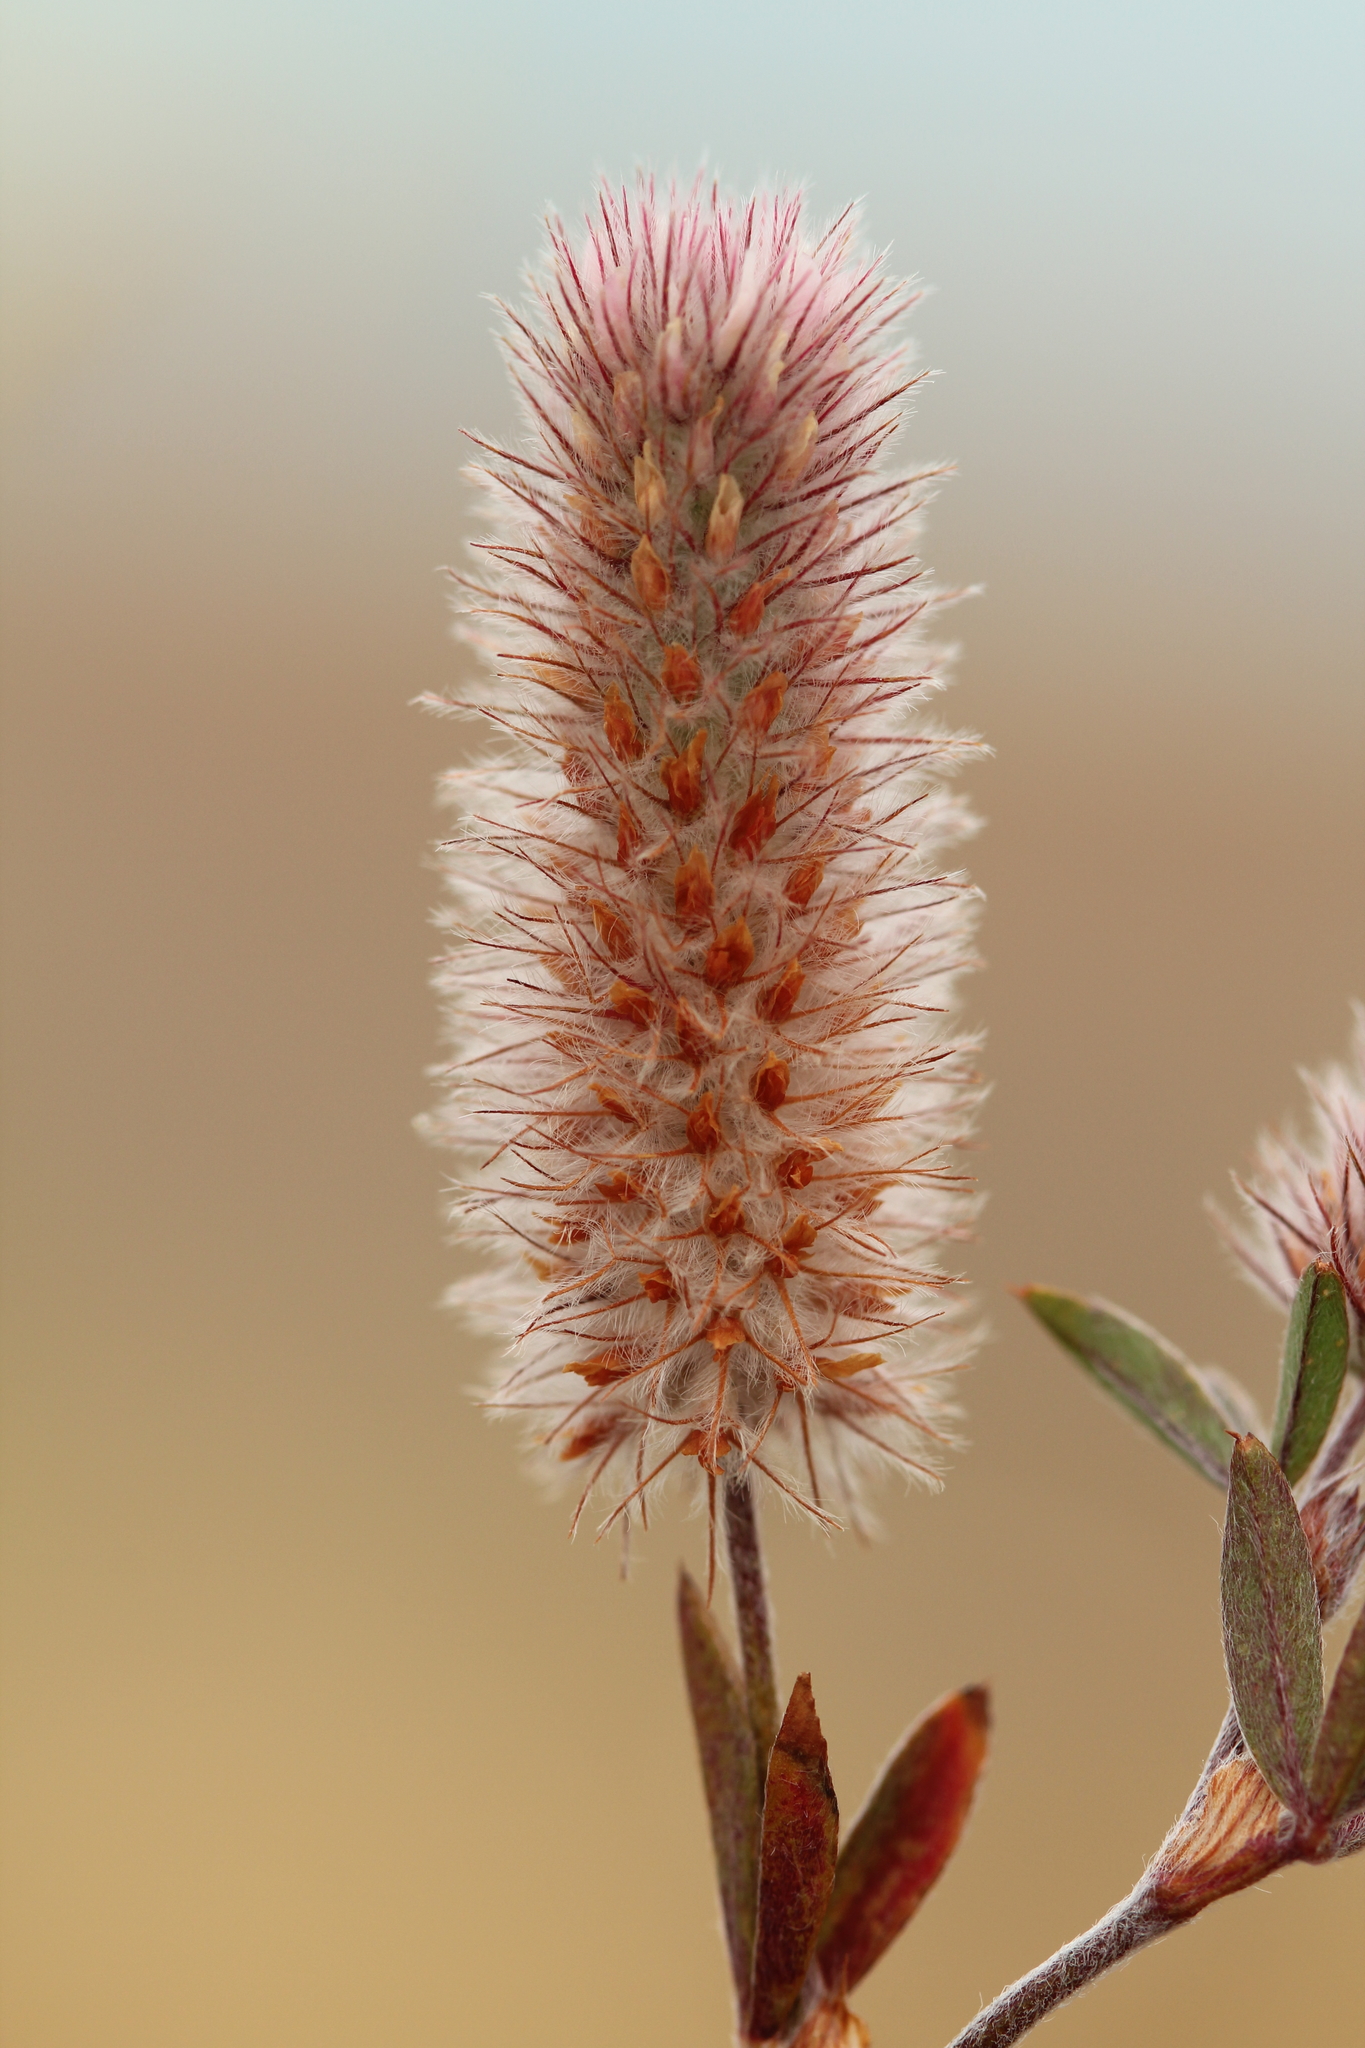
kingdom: Plantae
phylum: Tracheophyta
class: Magnoliopsida
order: Fabales
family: Fabaceae
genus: Trifolium
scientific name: Trifolium arvense
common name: Hare's-foot clover
